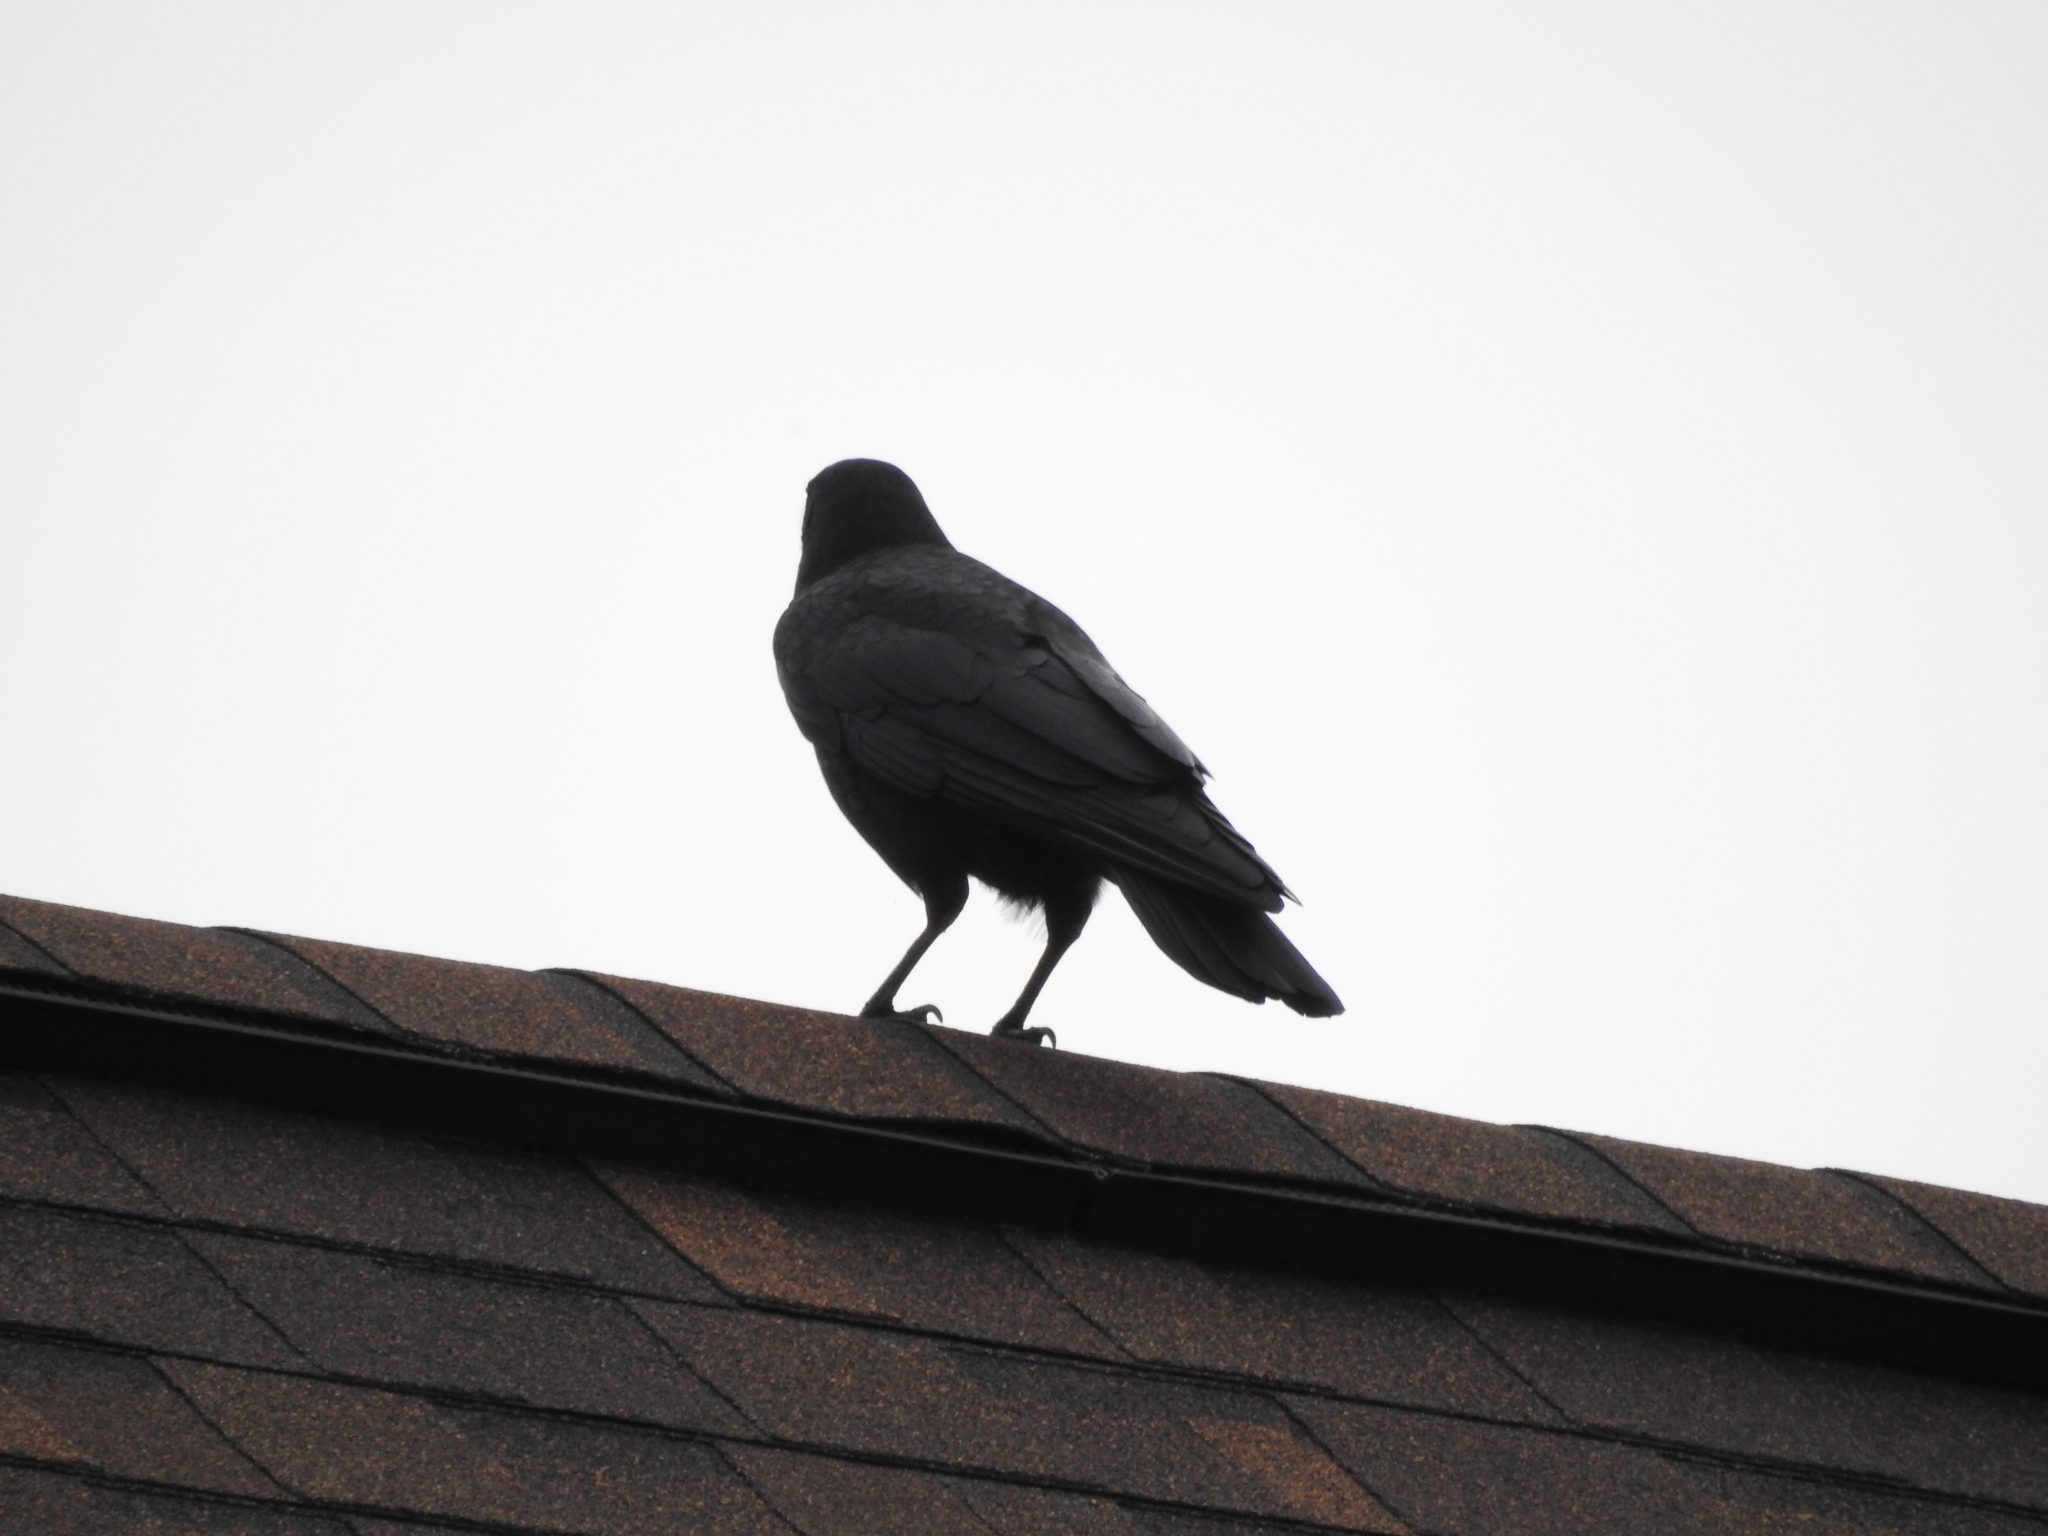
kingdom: Animalia
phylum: Chordata
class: Aves
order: Passeriformes
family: Corvidae
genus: Corvus
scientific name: Corvus brachyrhynchos
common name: American crow
